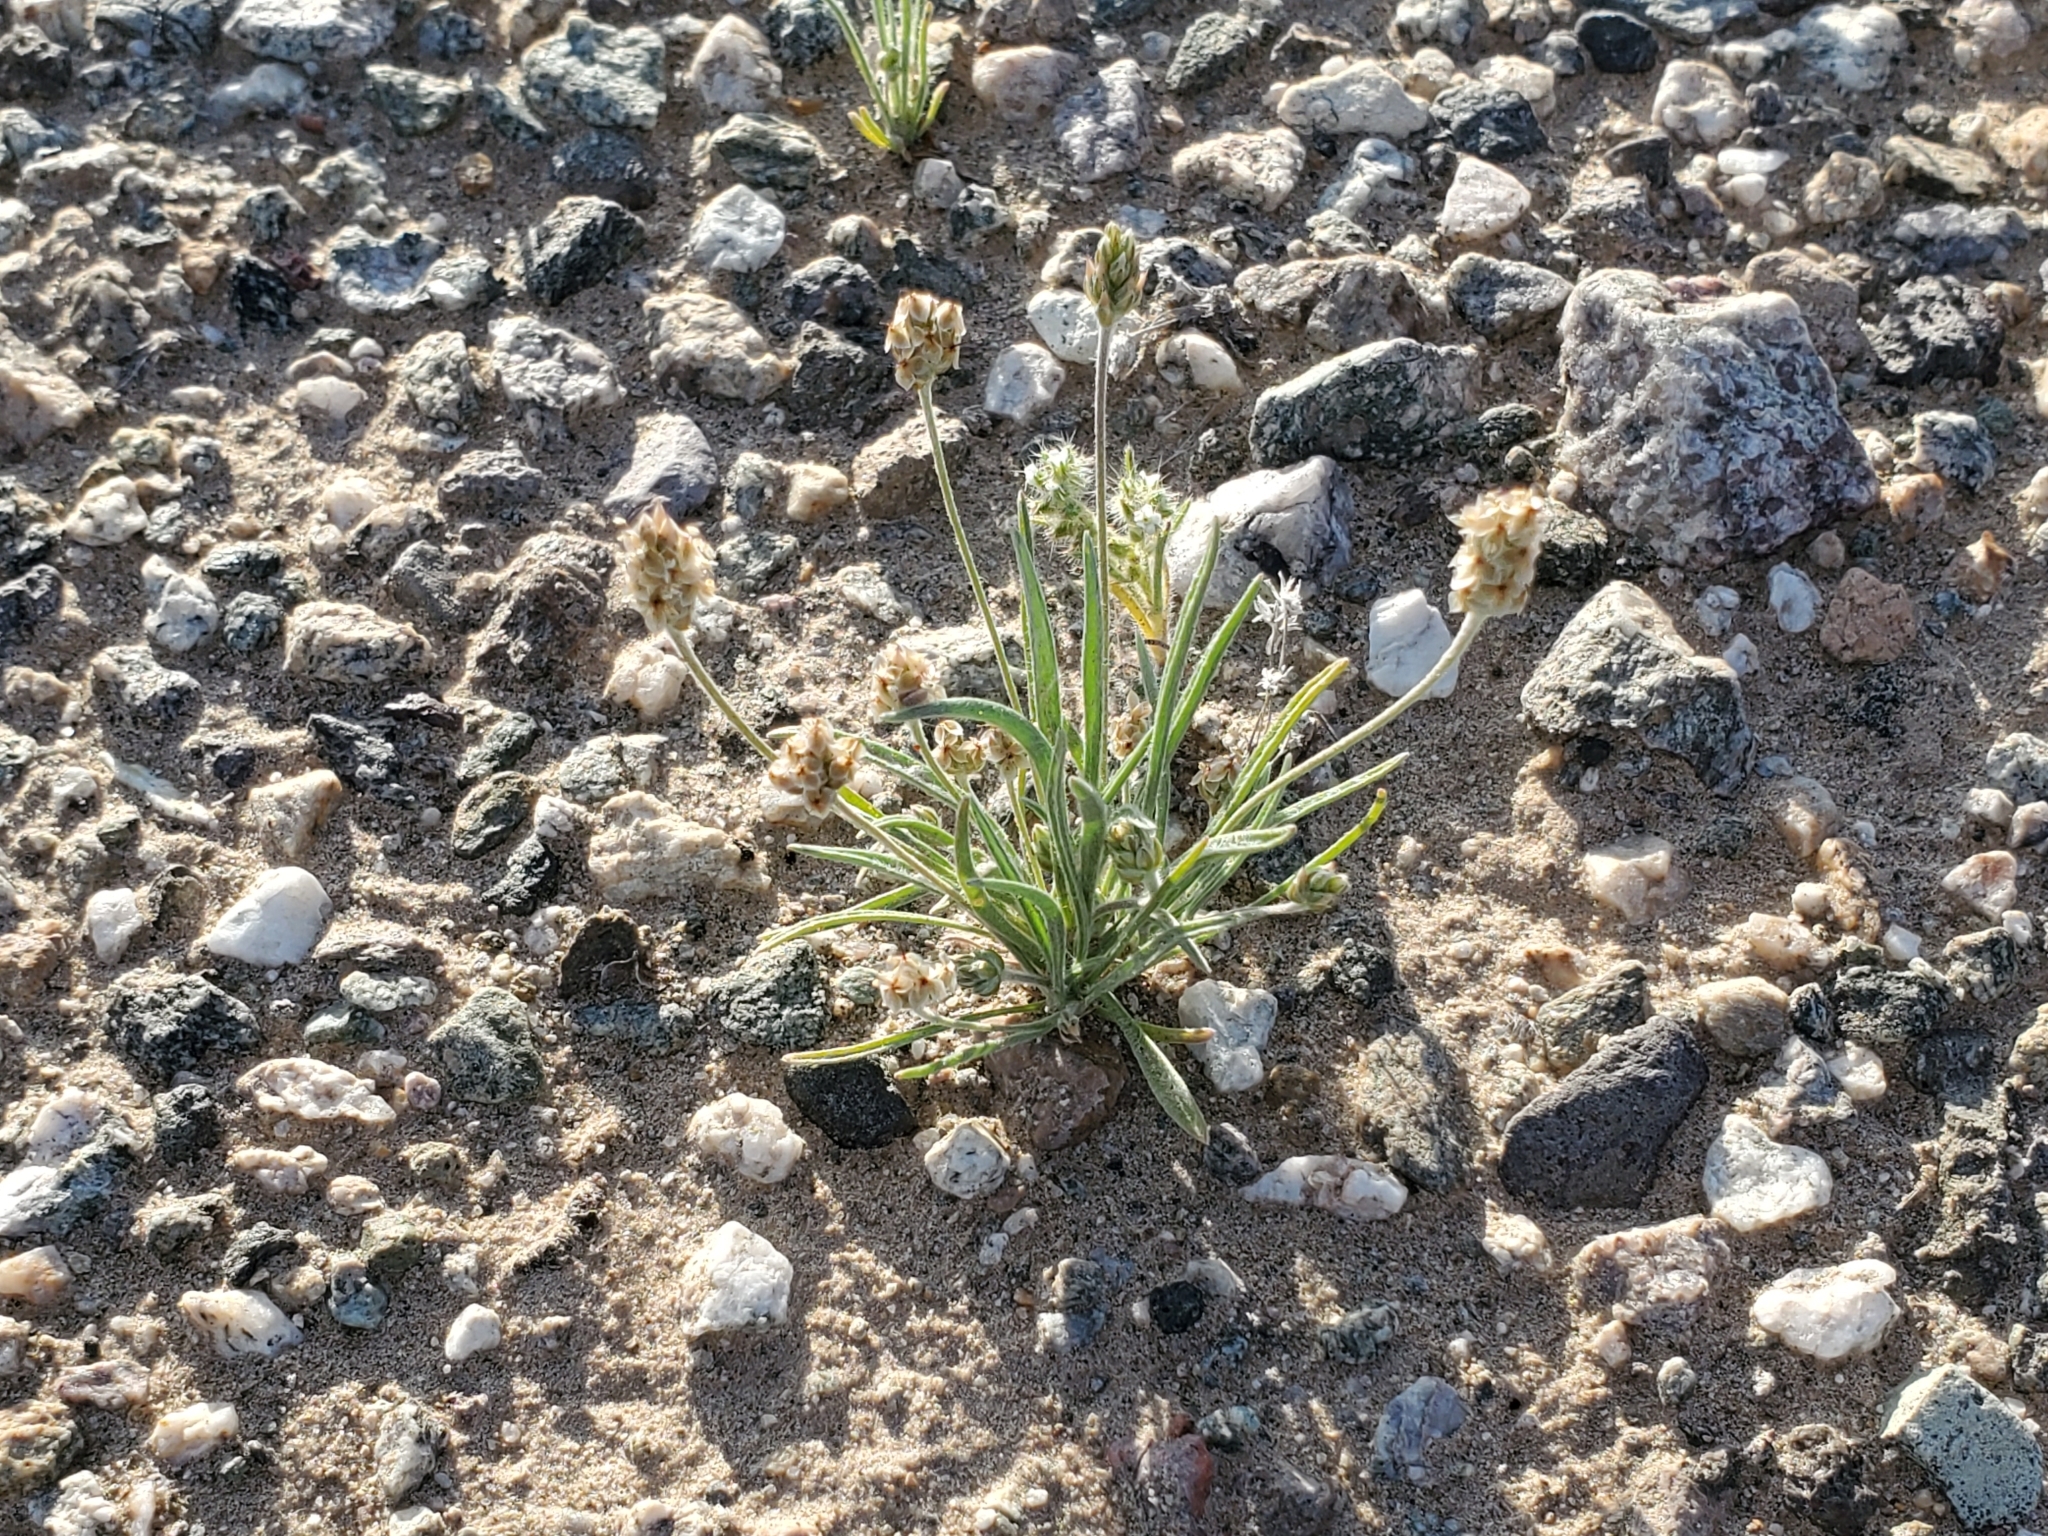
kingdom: Plantae
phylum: Tracheophyta
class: Magnoliopsida
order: Lamiales
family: Plantaginaceae
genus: Plantago
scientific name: Plantago ovata
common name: Blond plantain
